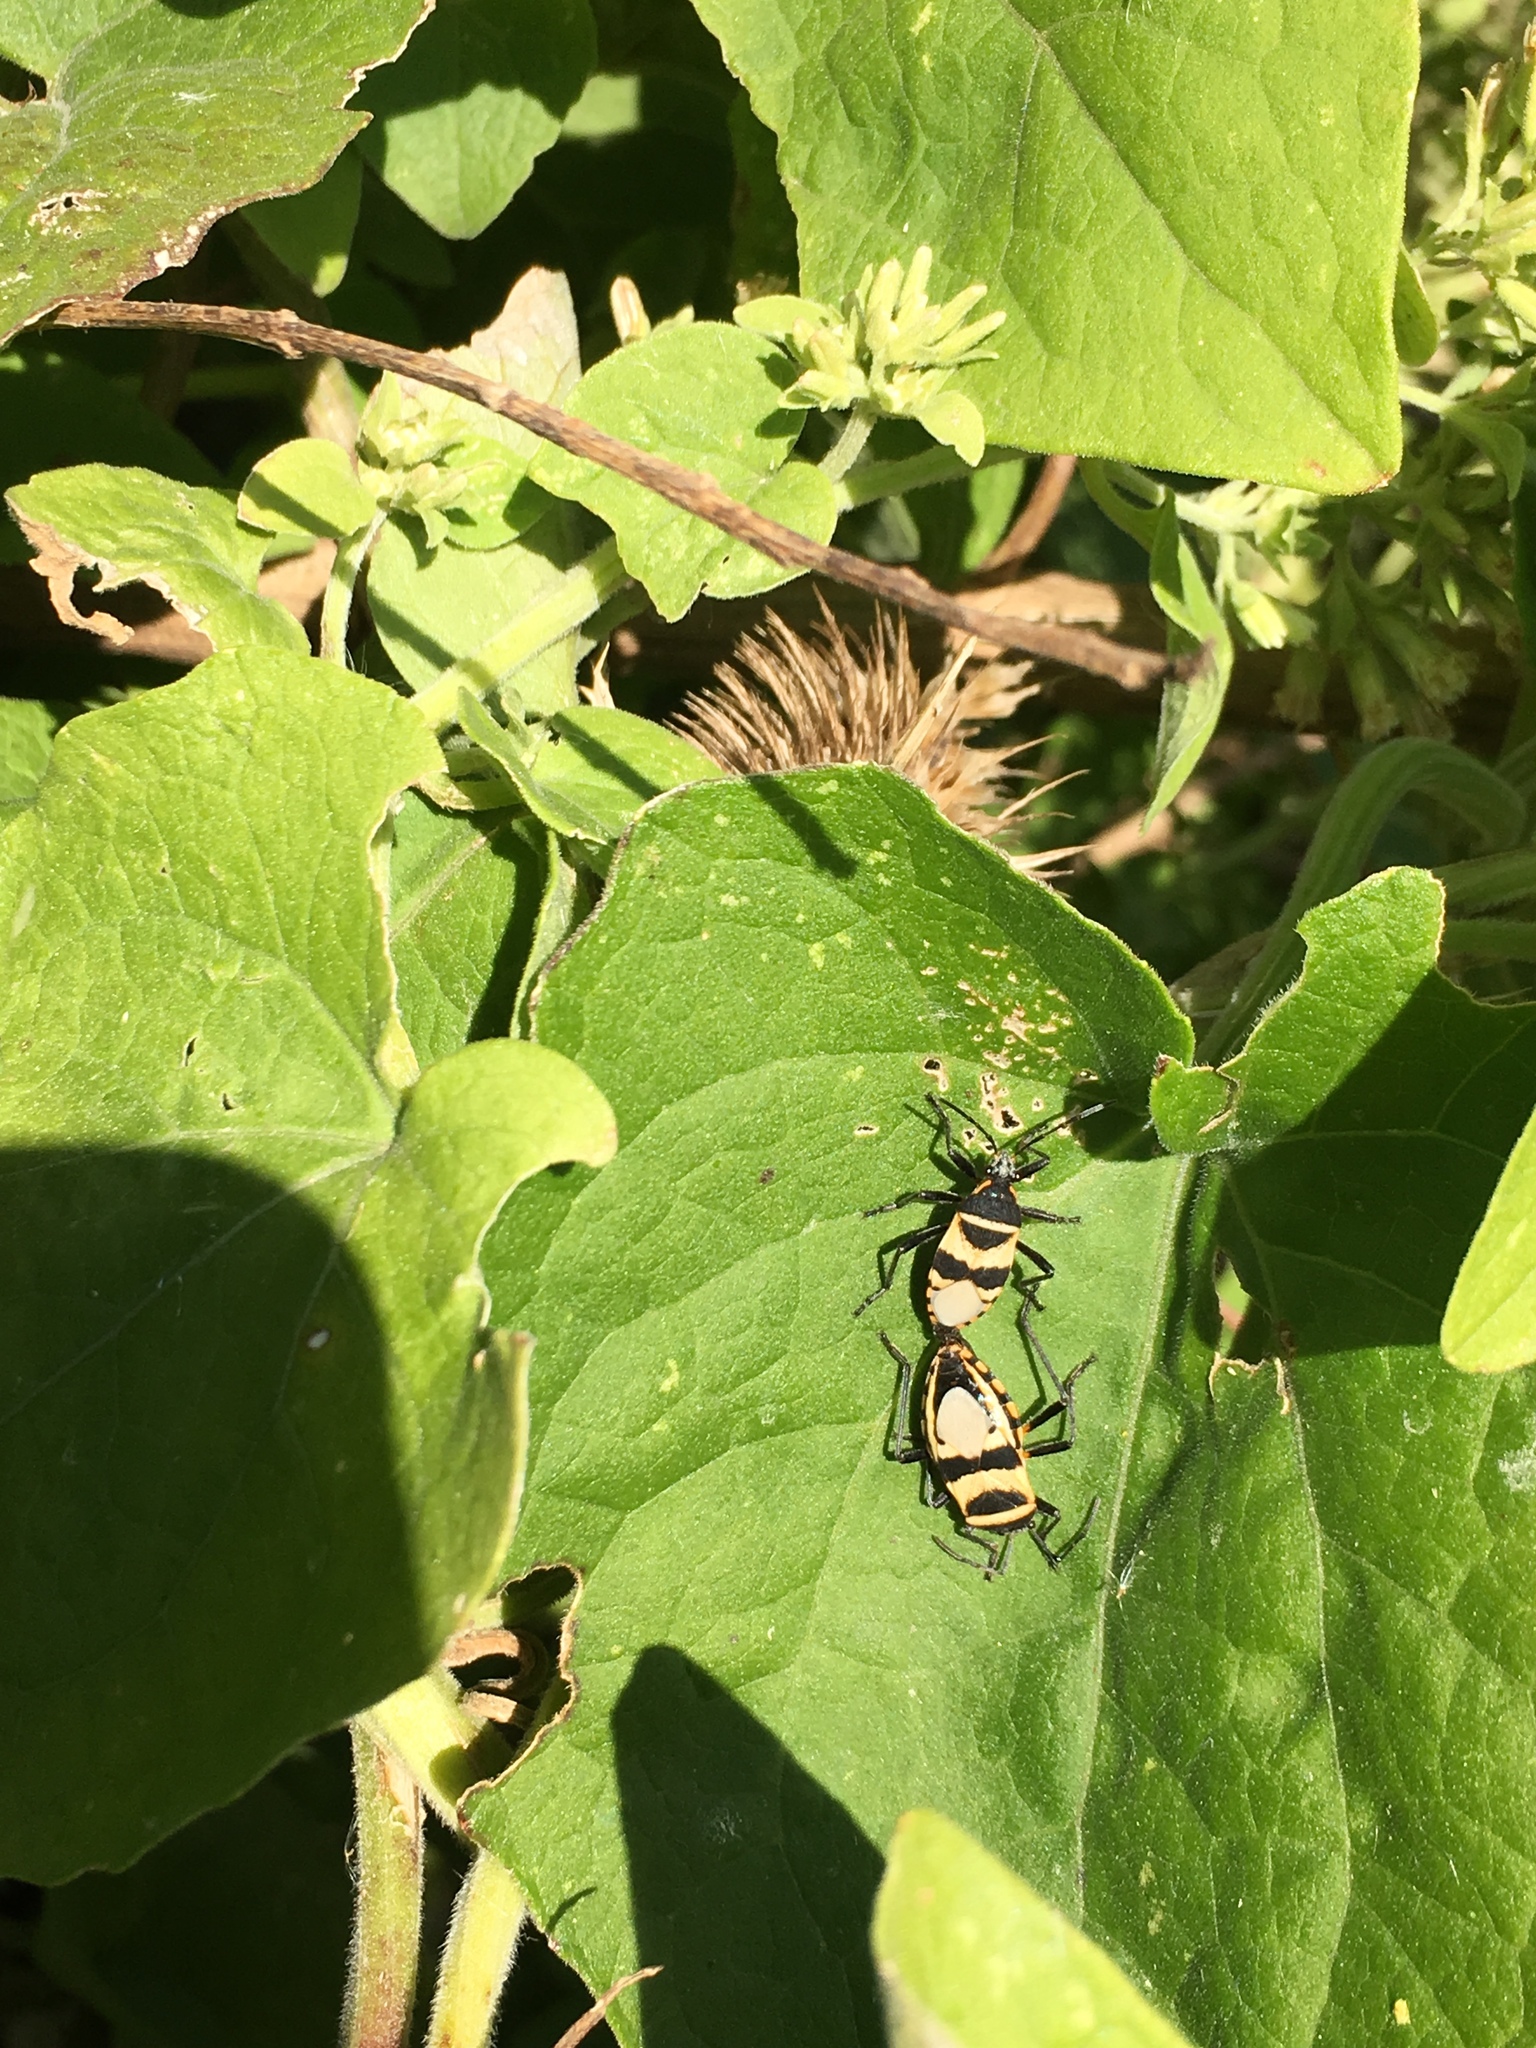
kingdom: Animalia
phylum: Arthropoda
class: Insecta
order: Hemiptera
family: Largidae
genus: Largus
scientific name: Largus fasciatus
